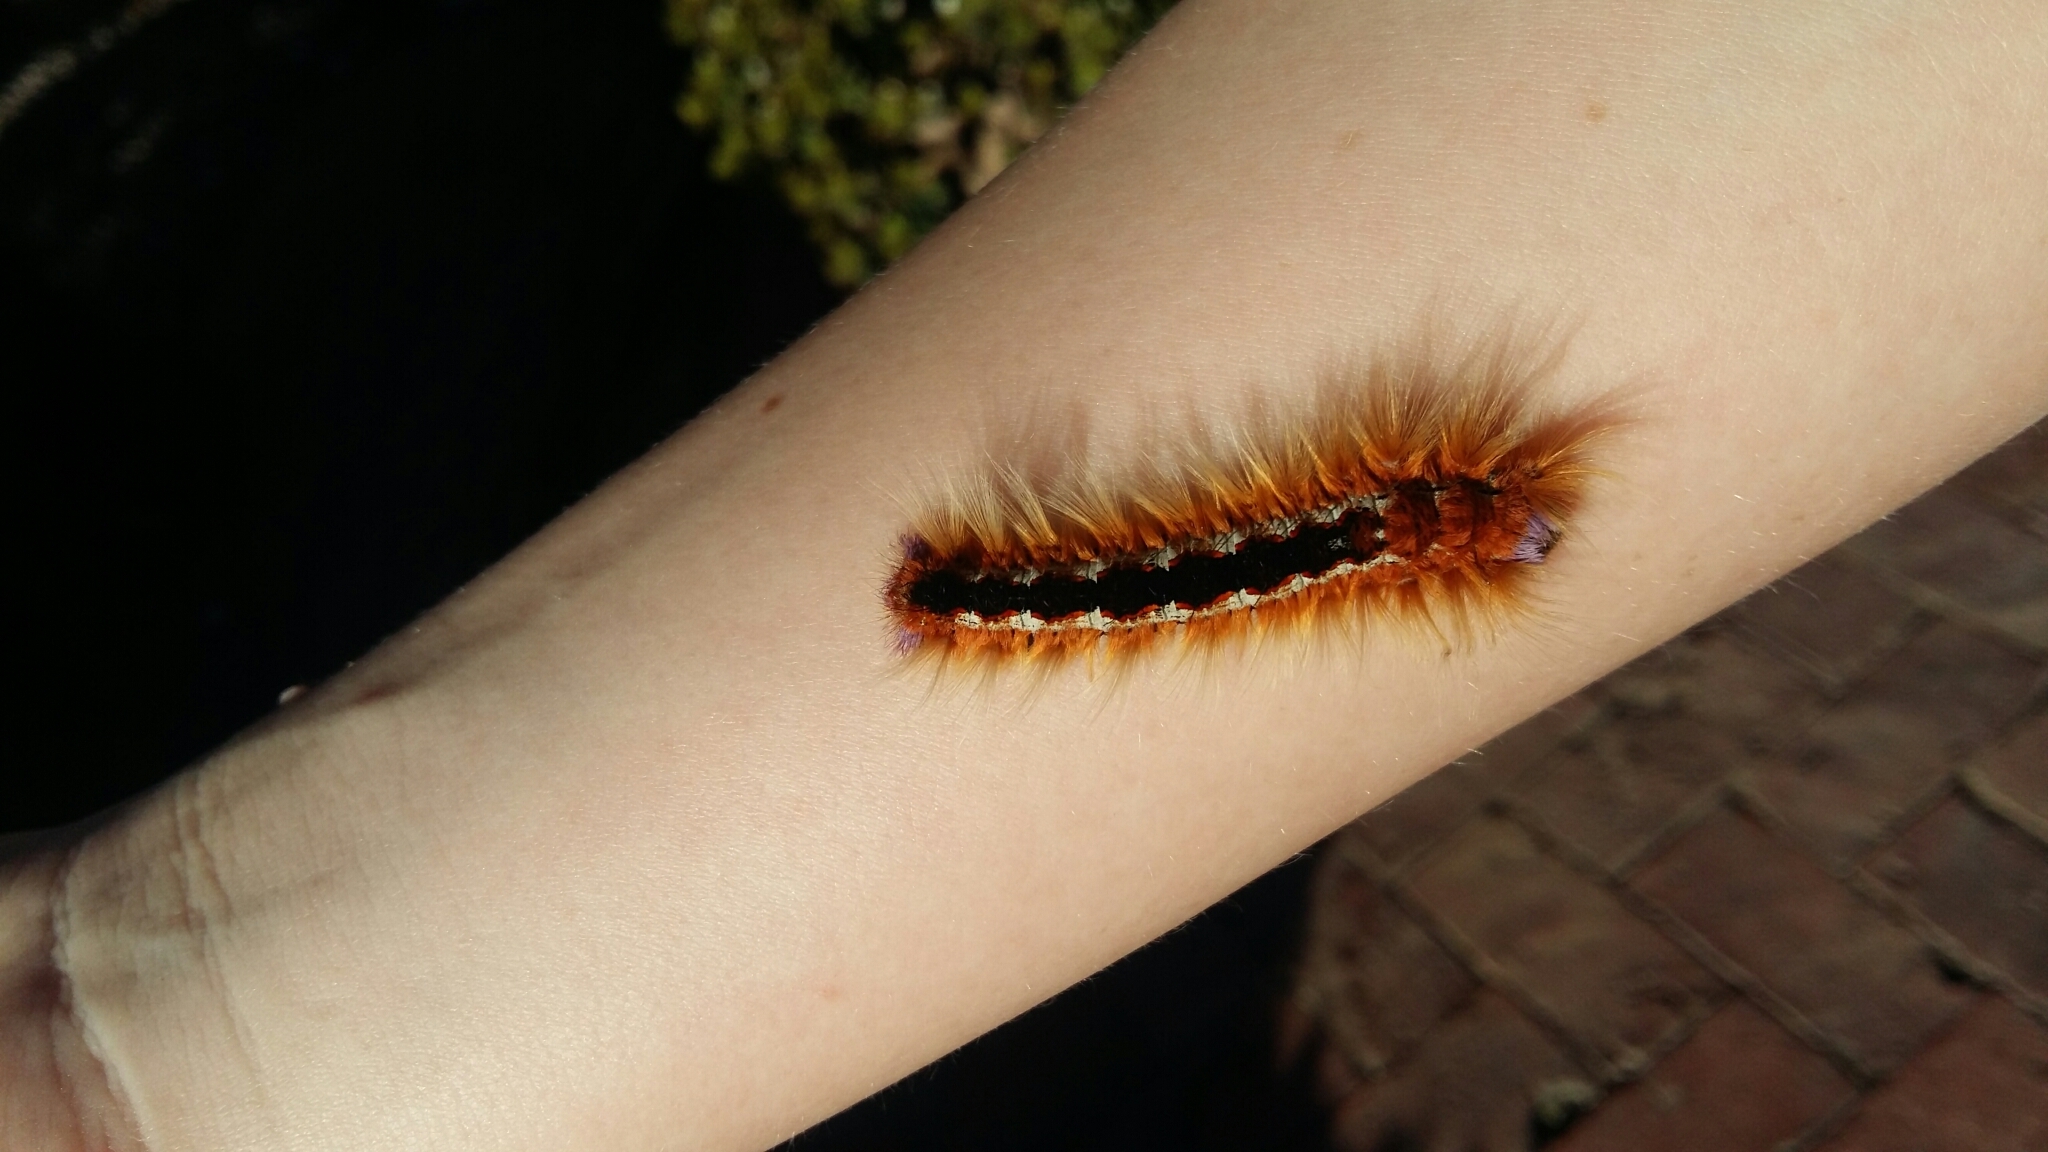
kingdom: Animalia
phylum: Arthropoda
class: Insecta
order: Lepidoptera
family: Lasiocampidae
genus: Eutricha
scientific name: Eutricha capensis
